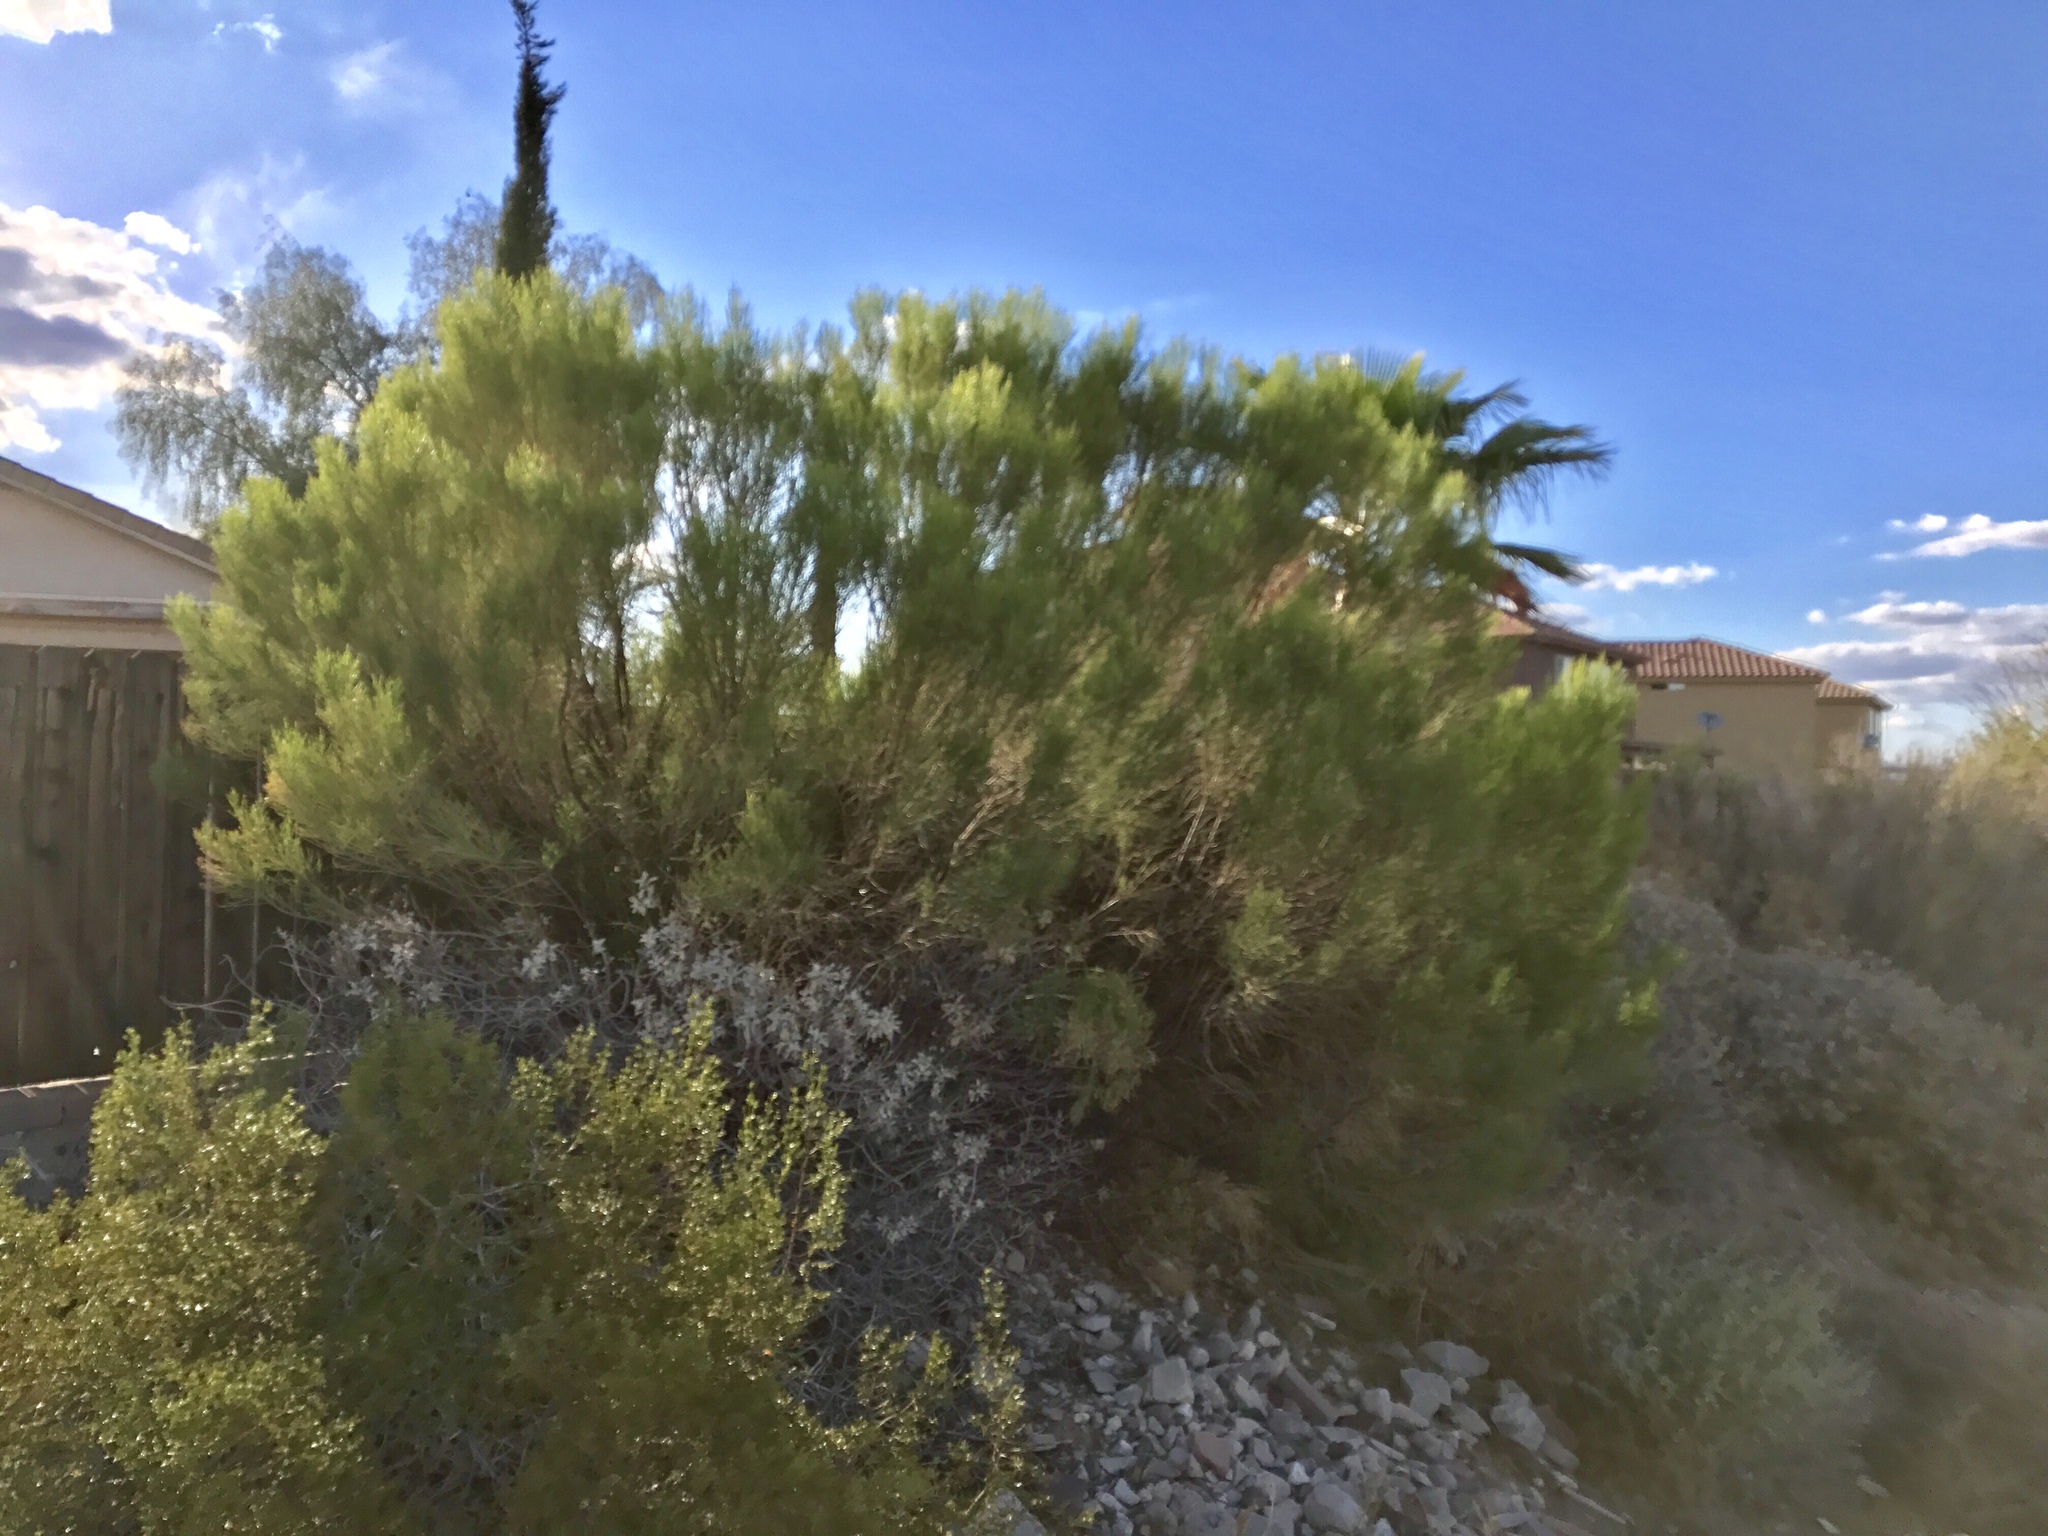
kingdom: Plantae
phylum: Tracheophyta
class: Magnoliopsida
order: Asterales
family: Asteraceae
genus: Baccharis
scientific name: Baccharis sarothroides
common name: Desert-broom
